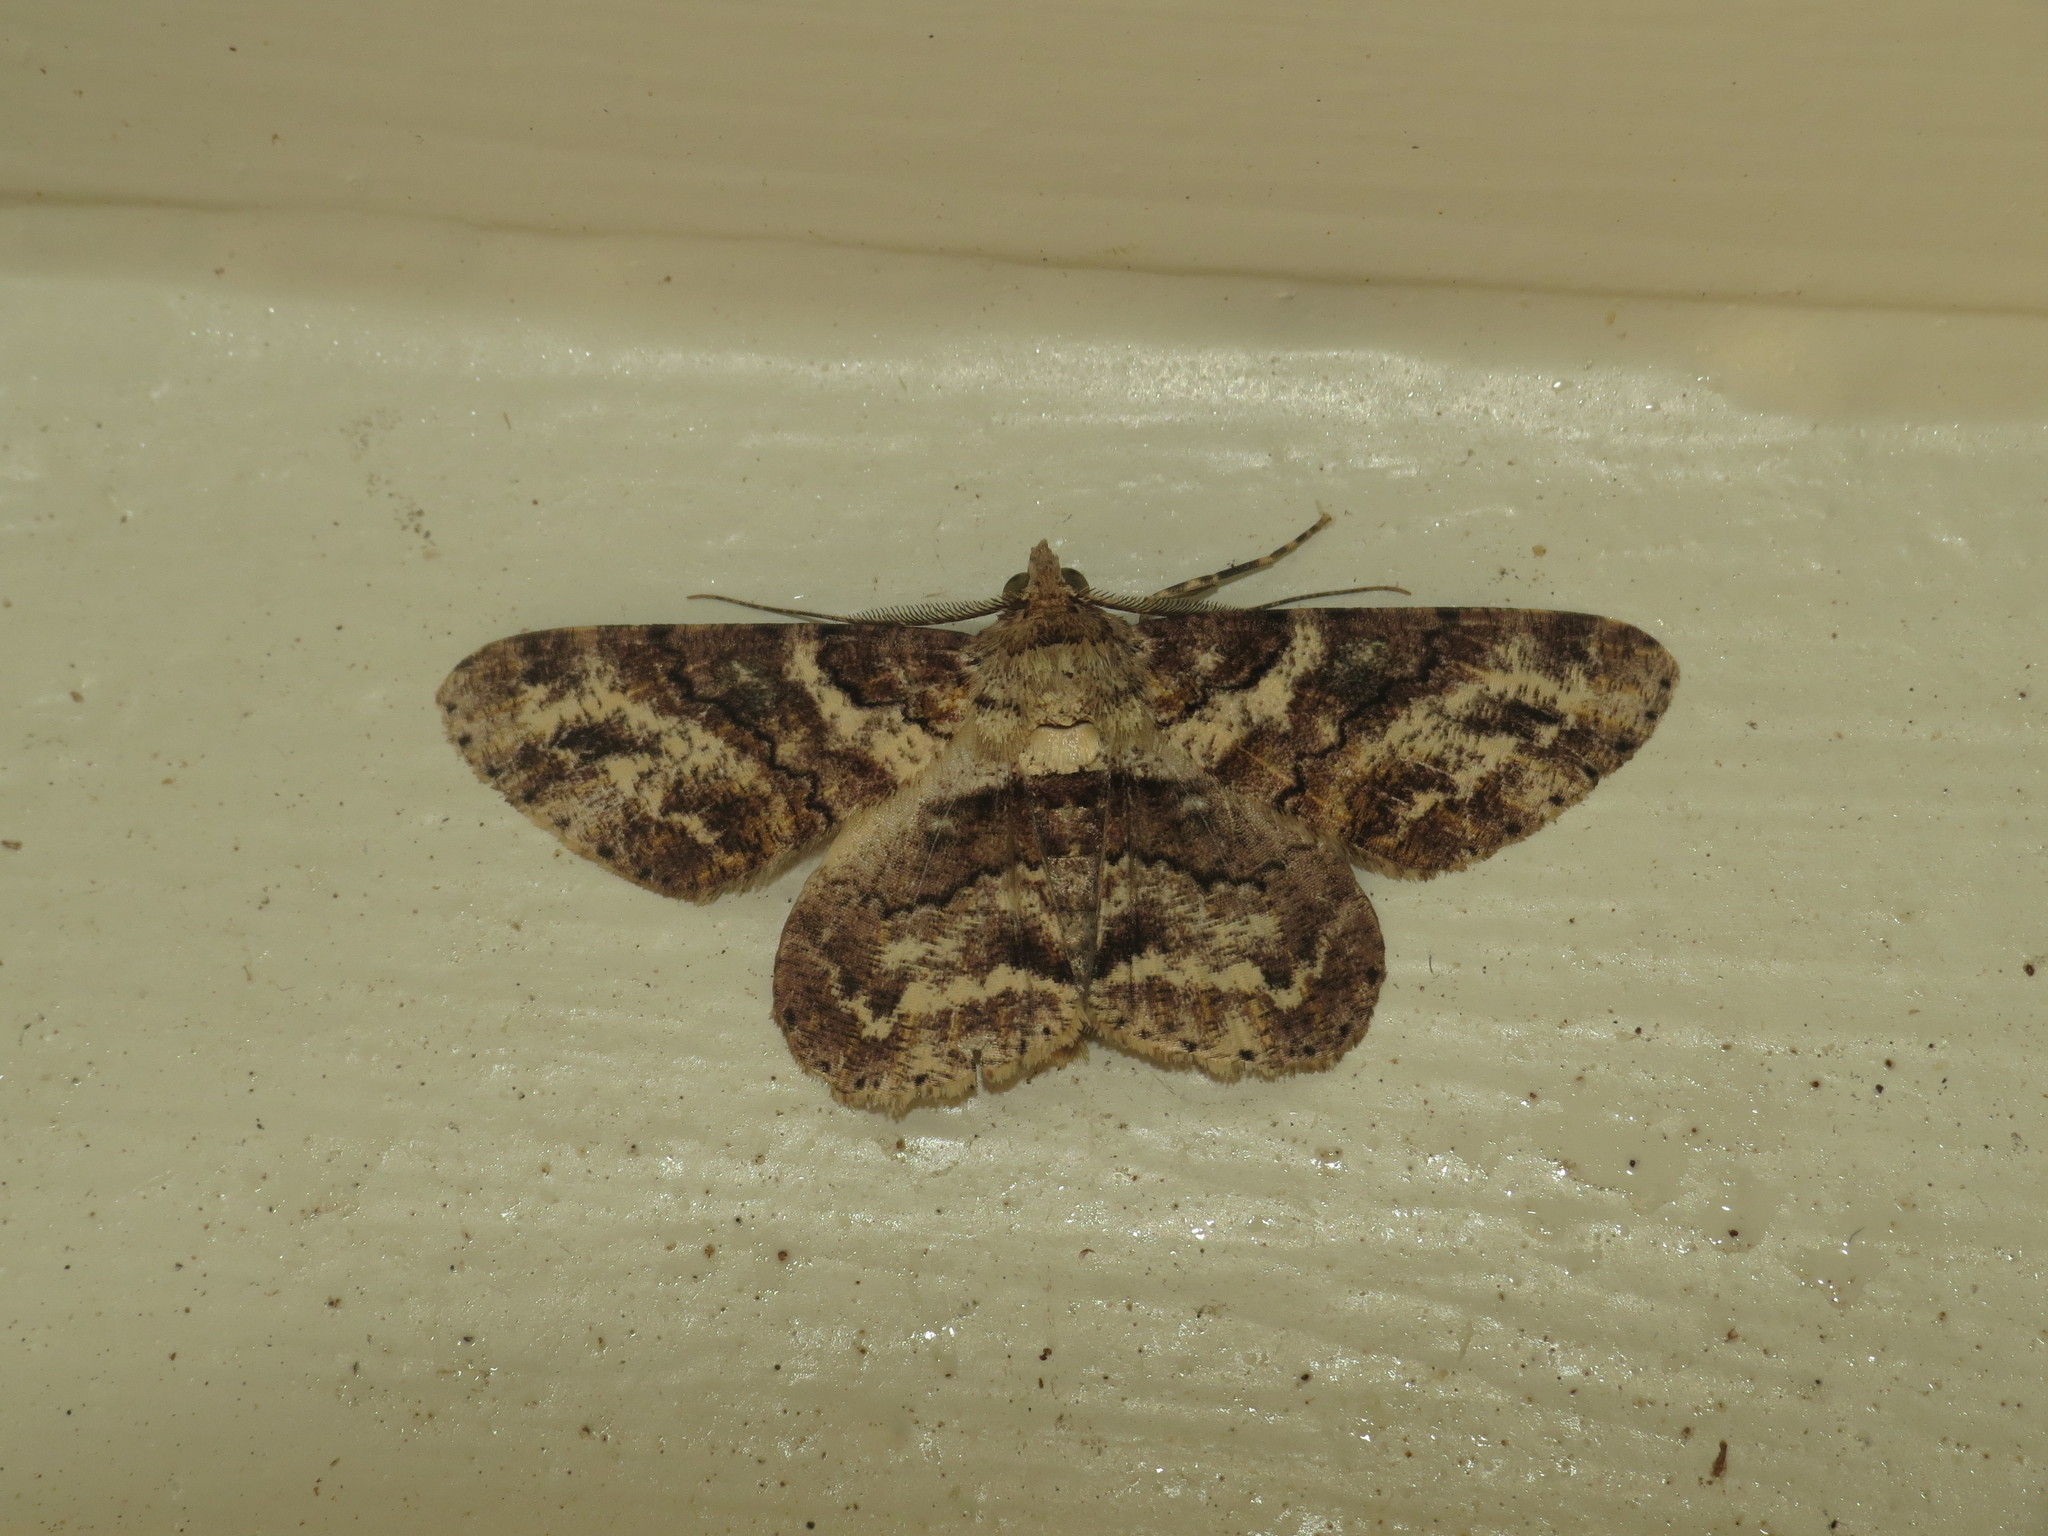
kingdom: Animalia
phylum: Arthropoda
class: Insecta
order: Lepidoptera
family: Geometridae
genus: Cleora
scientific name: Cleora repetita
